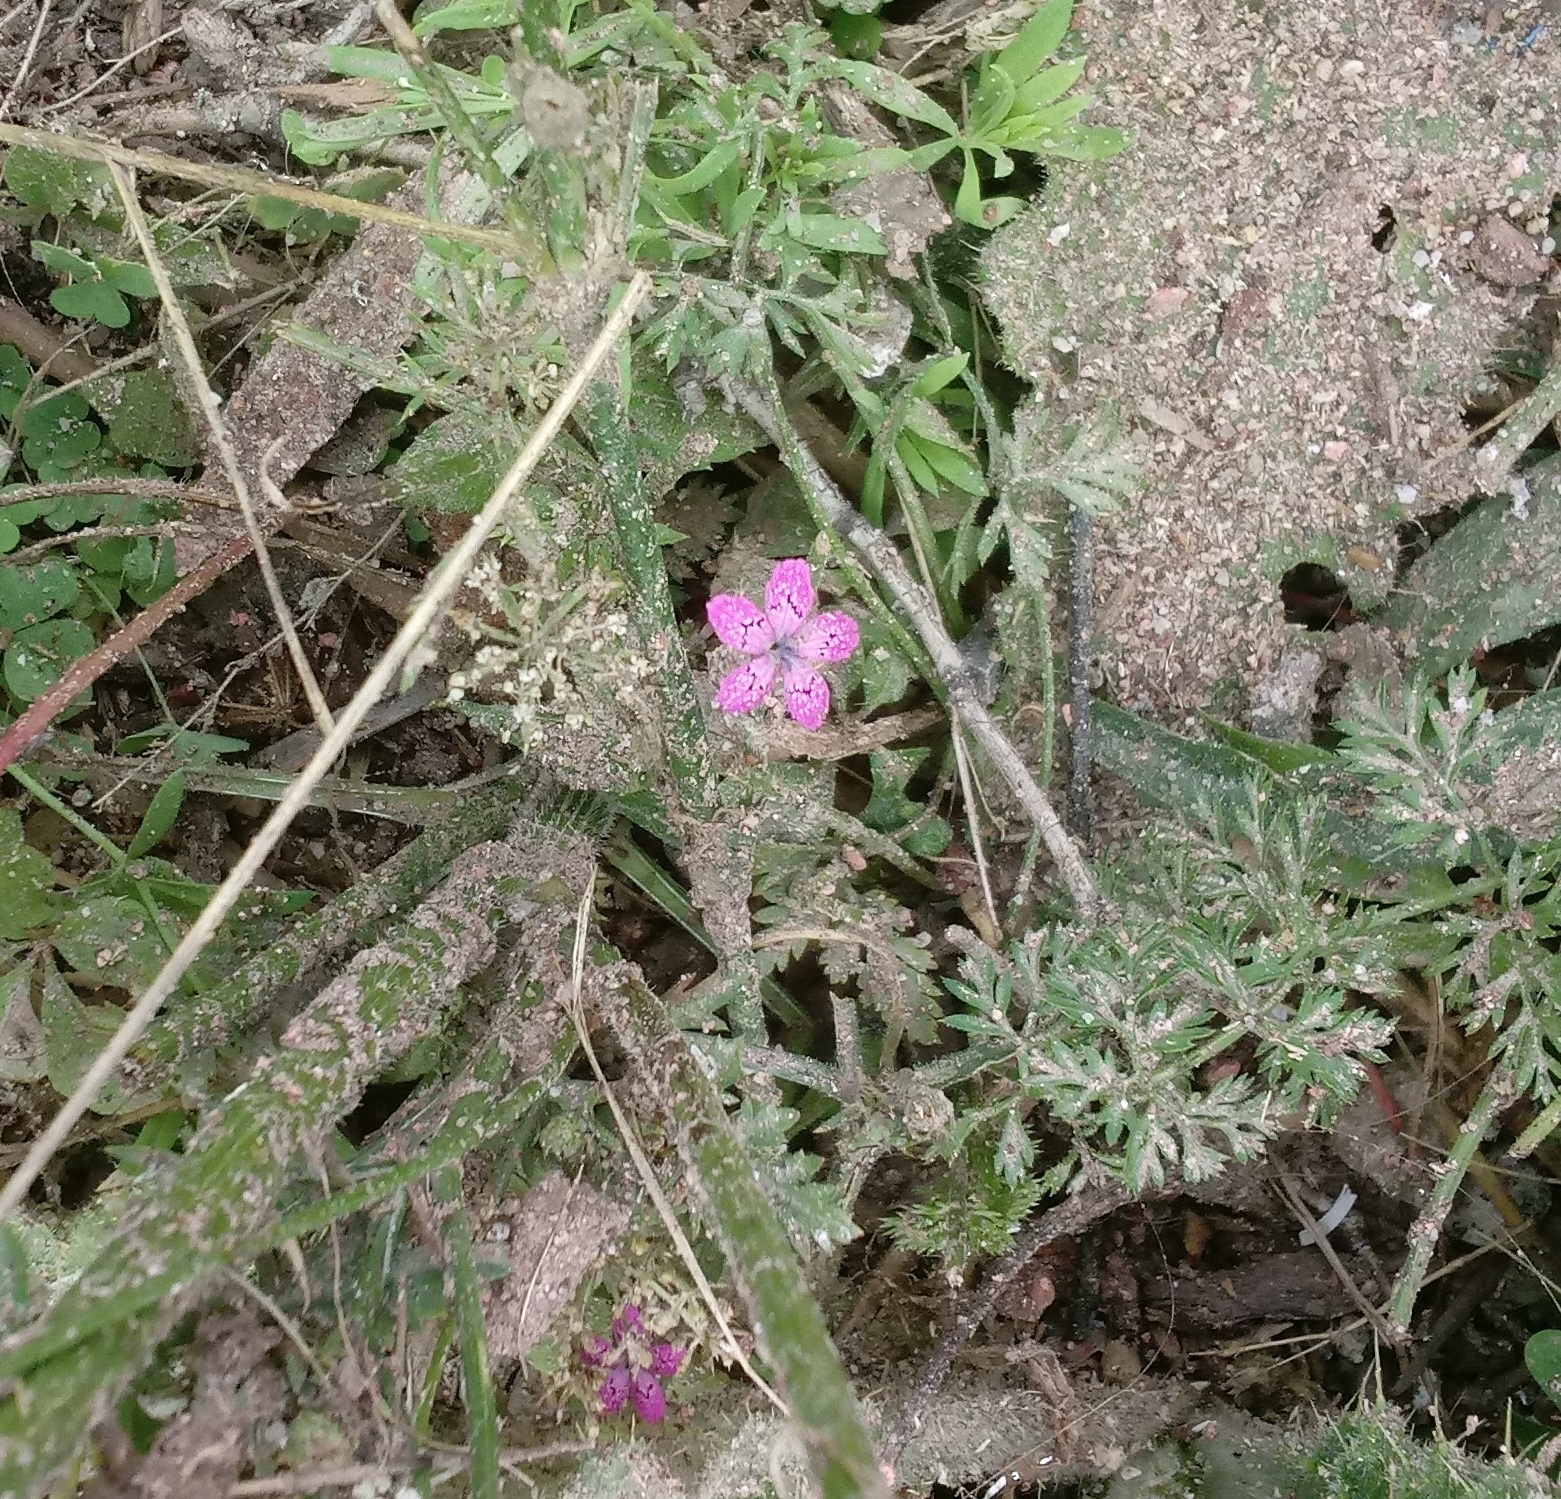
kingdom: Plantae
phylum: Tracheophyta
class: Magnoliopsida
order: Caryophyllales
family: Caryophyllaceae
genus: Dianthus
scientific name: Dianthus armeria
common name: Deptford pink
